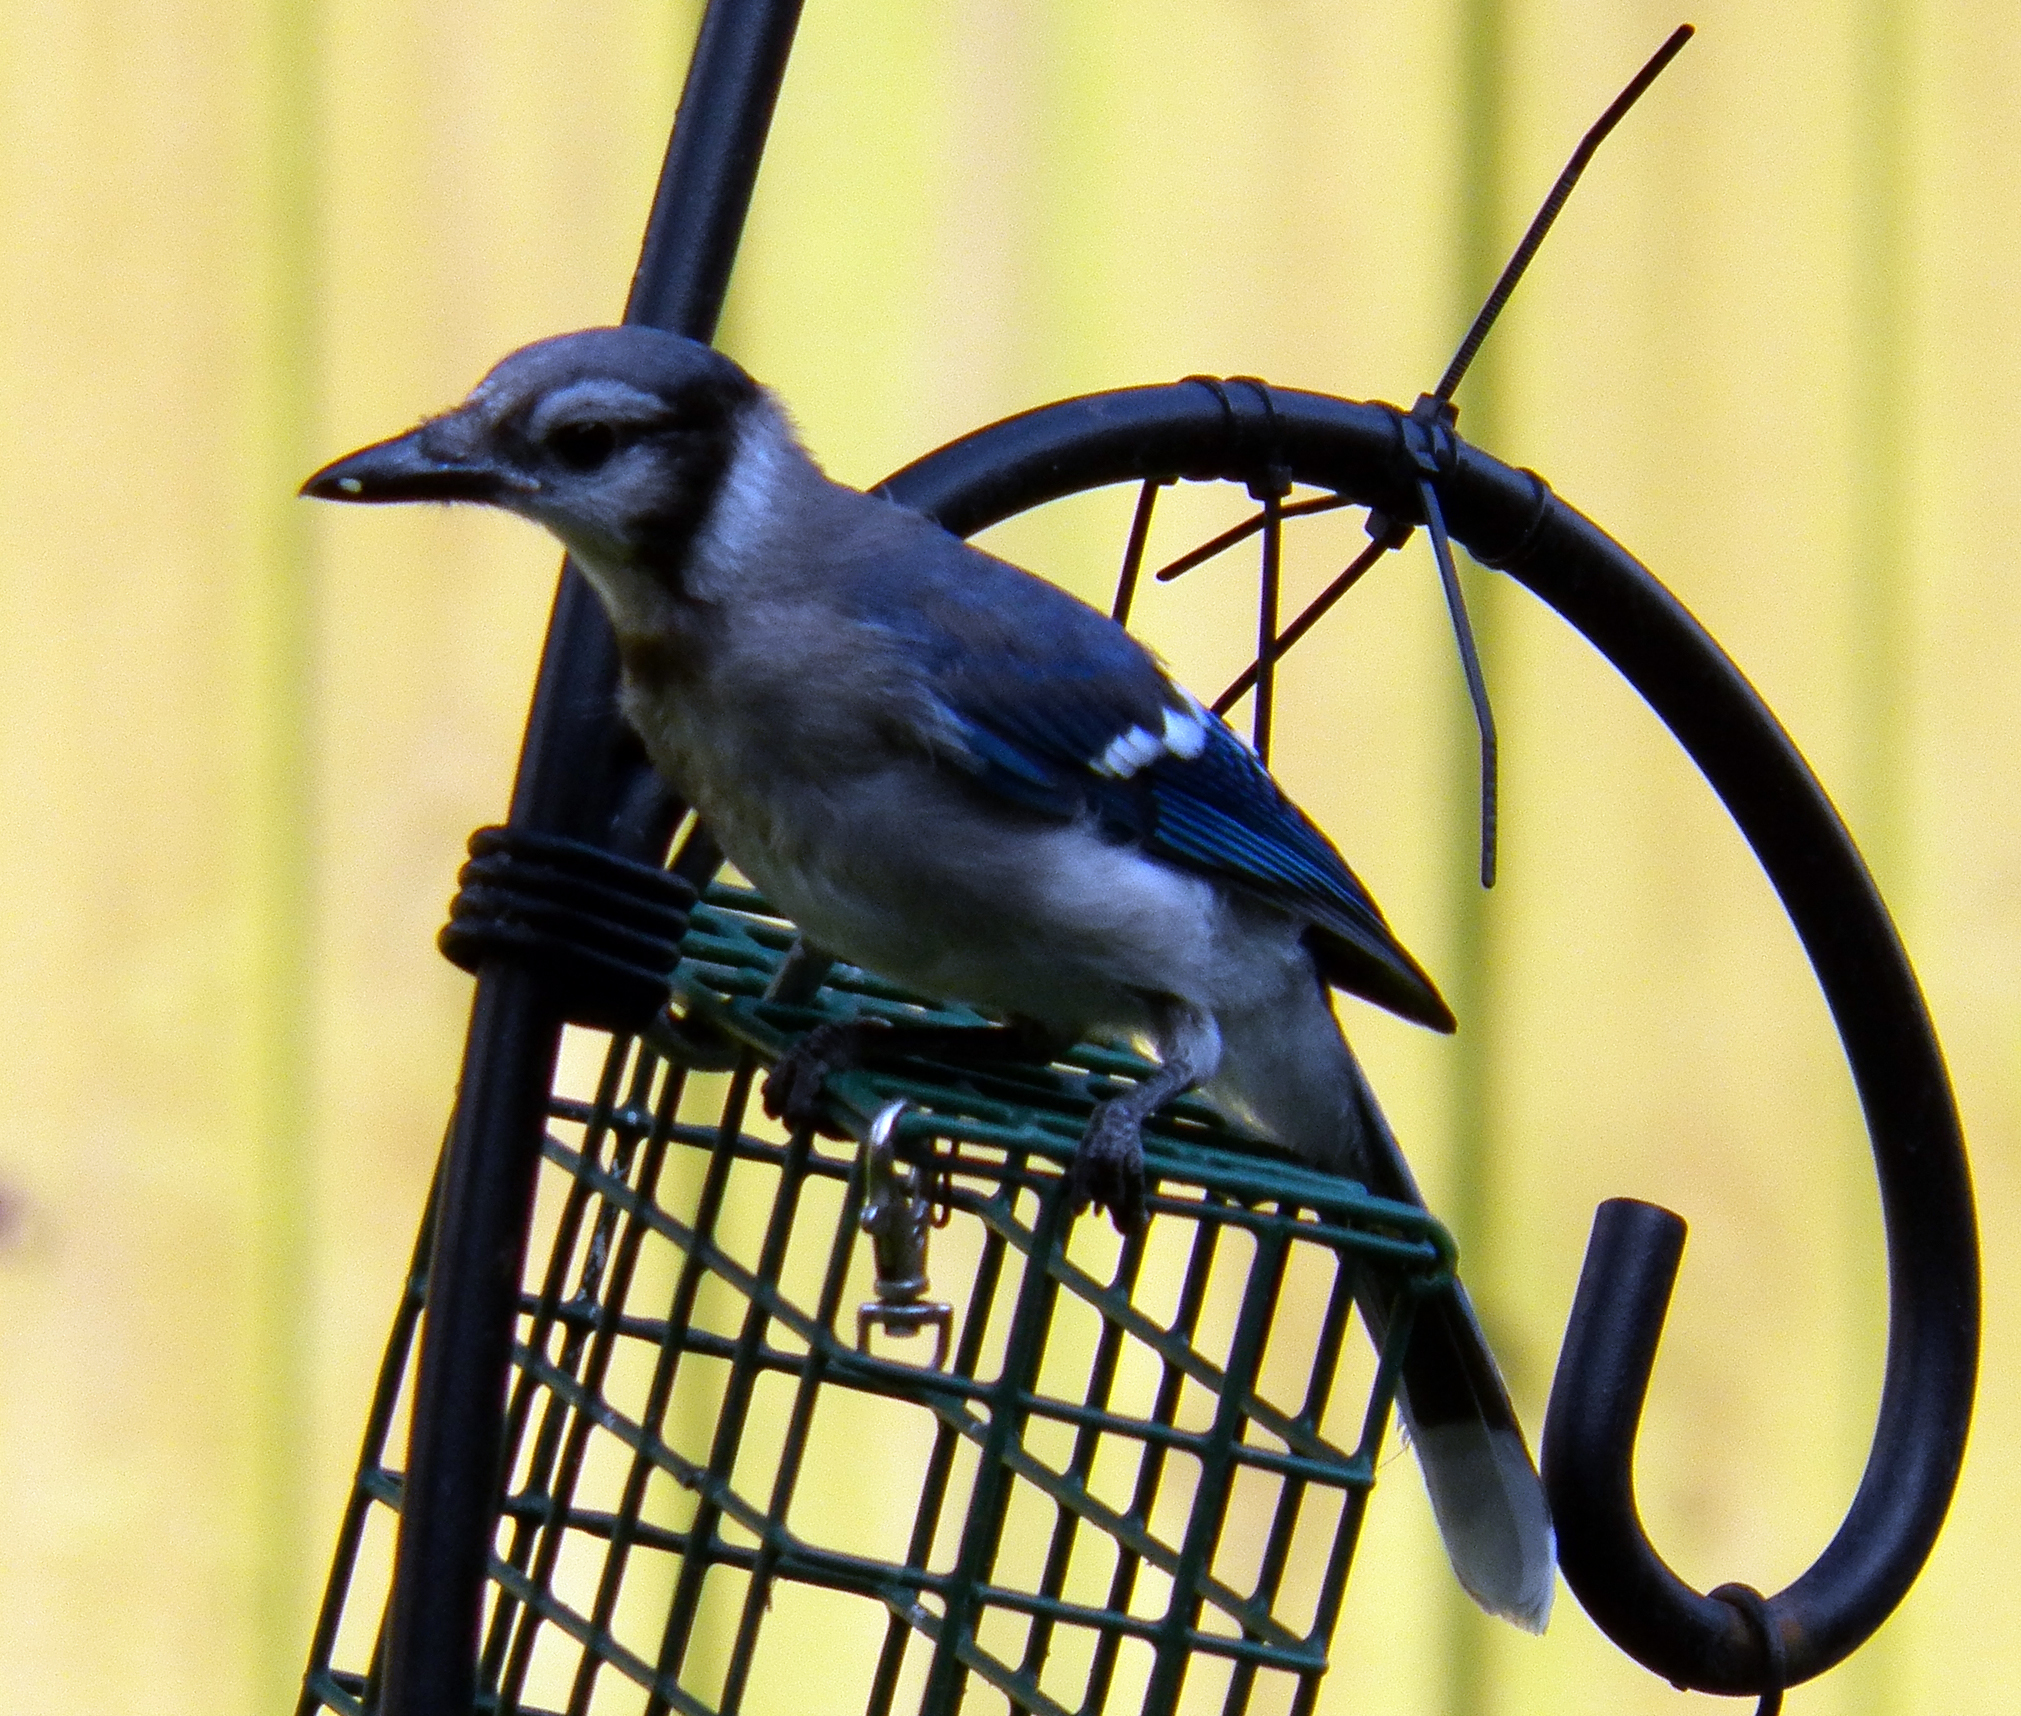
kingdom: Animalia
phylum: Chordata
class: Aves
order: Passeriformes
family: Corvidae
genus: Cyanocitta
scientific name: Cyanocitta cristata
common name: Blue jay
